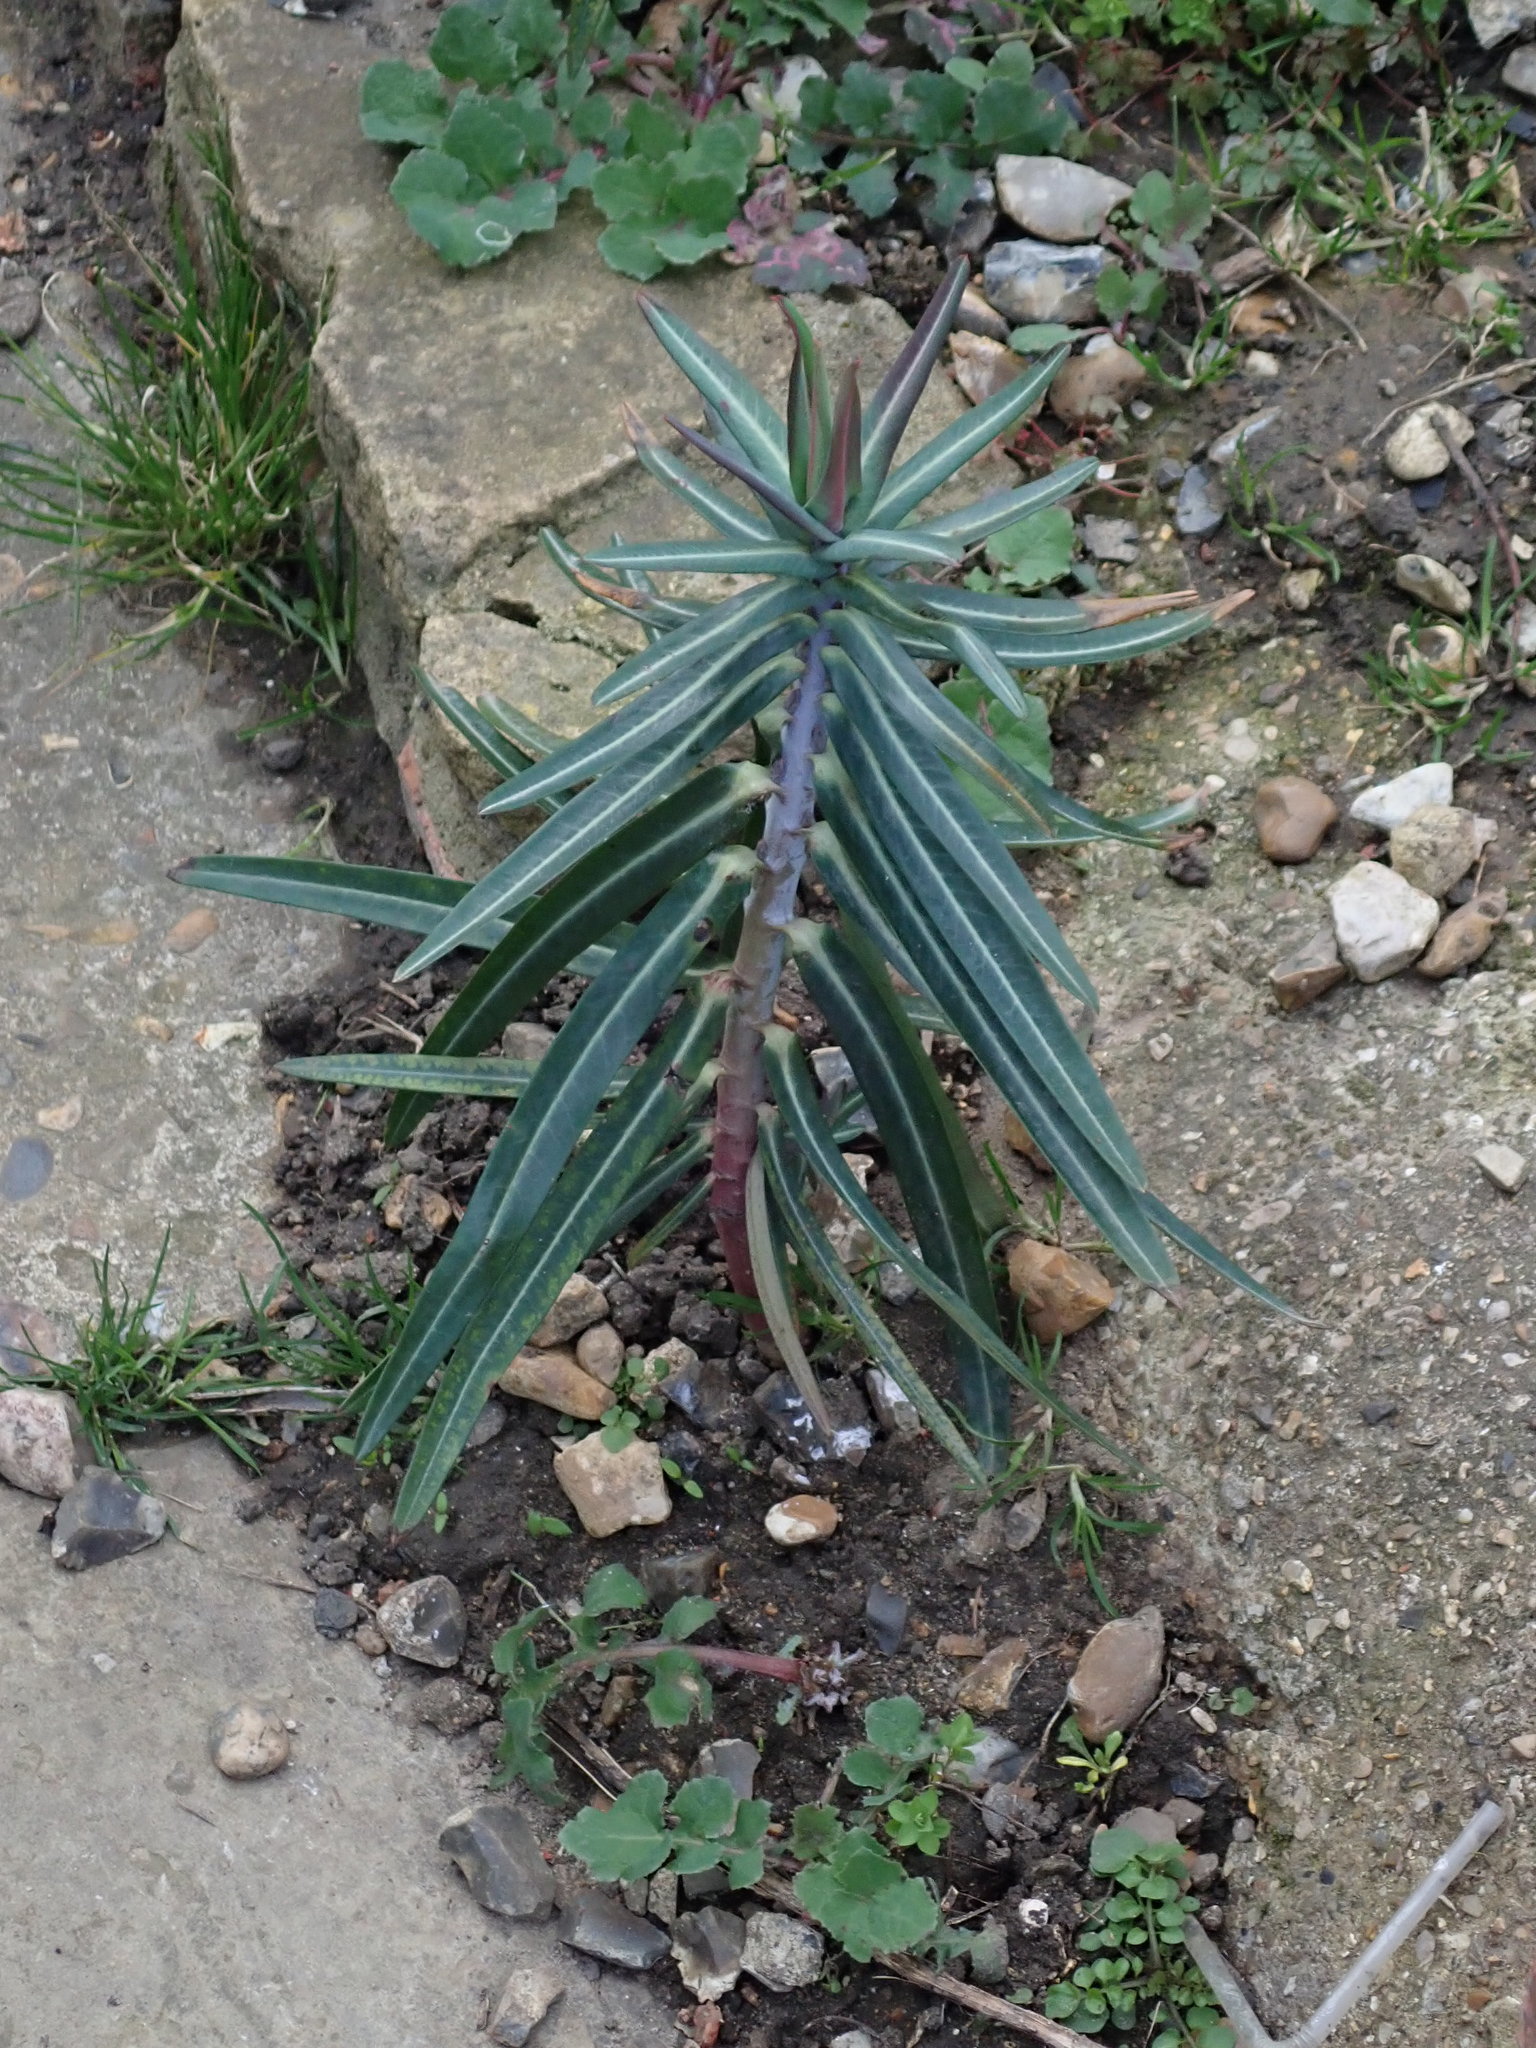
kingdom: Plantae
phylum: Tracheophyta
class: Magnoliopsida
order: Malpighiales
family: Euphorbiaceae
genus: Euphorbia
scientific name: Euphorbia lathyris
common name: Caper spurge
